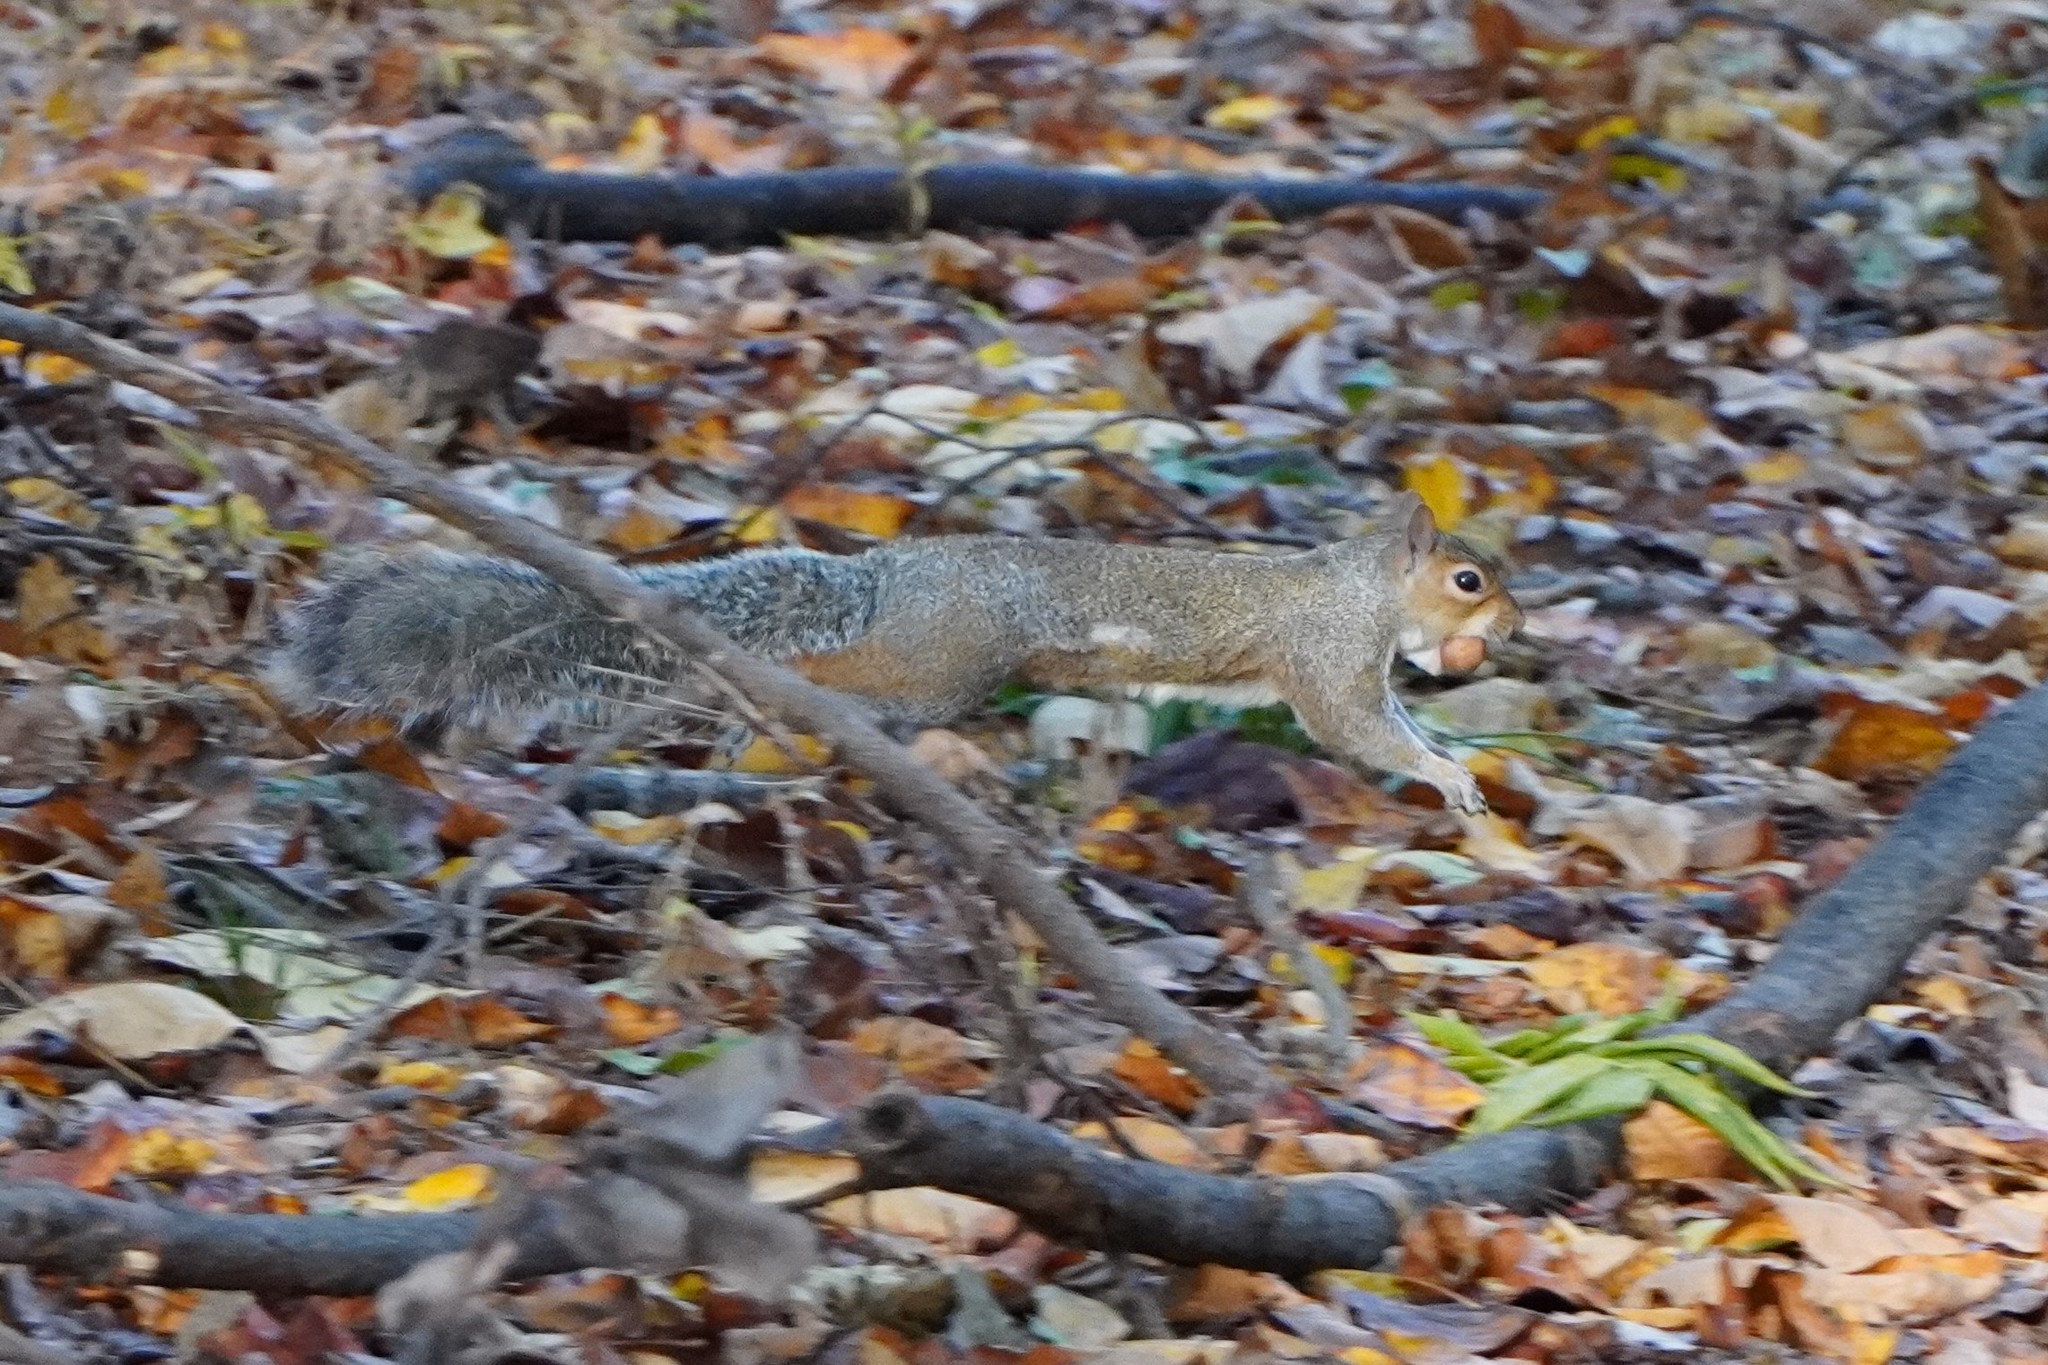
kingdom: Animalia
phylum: Chordata
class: Mammalia
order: Rodentia
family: Sciuridae
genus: Sciurus
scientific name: Sciurus carolinensis
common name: Eastern gray squirrel
